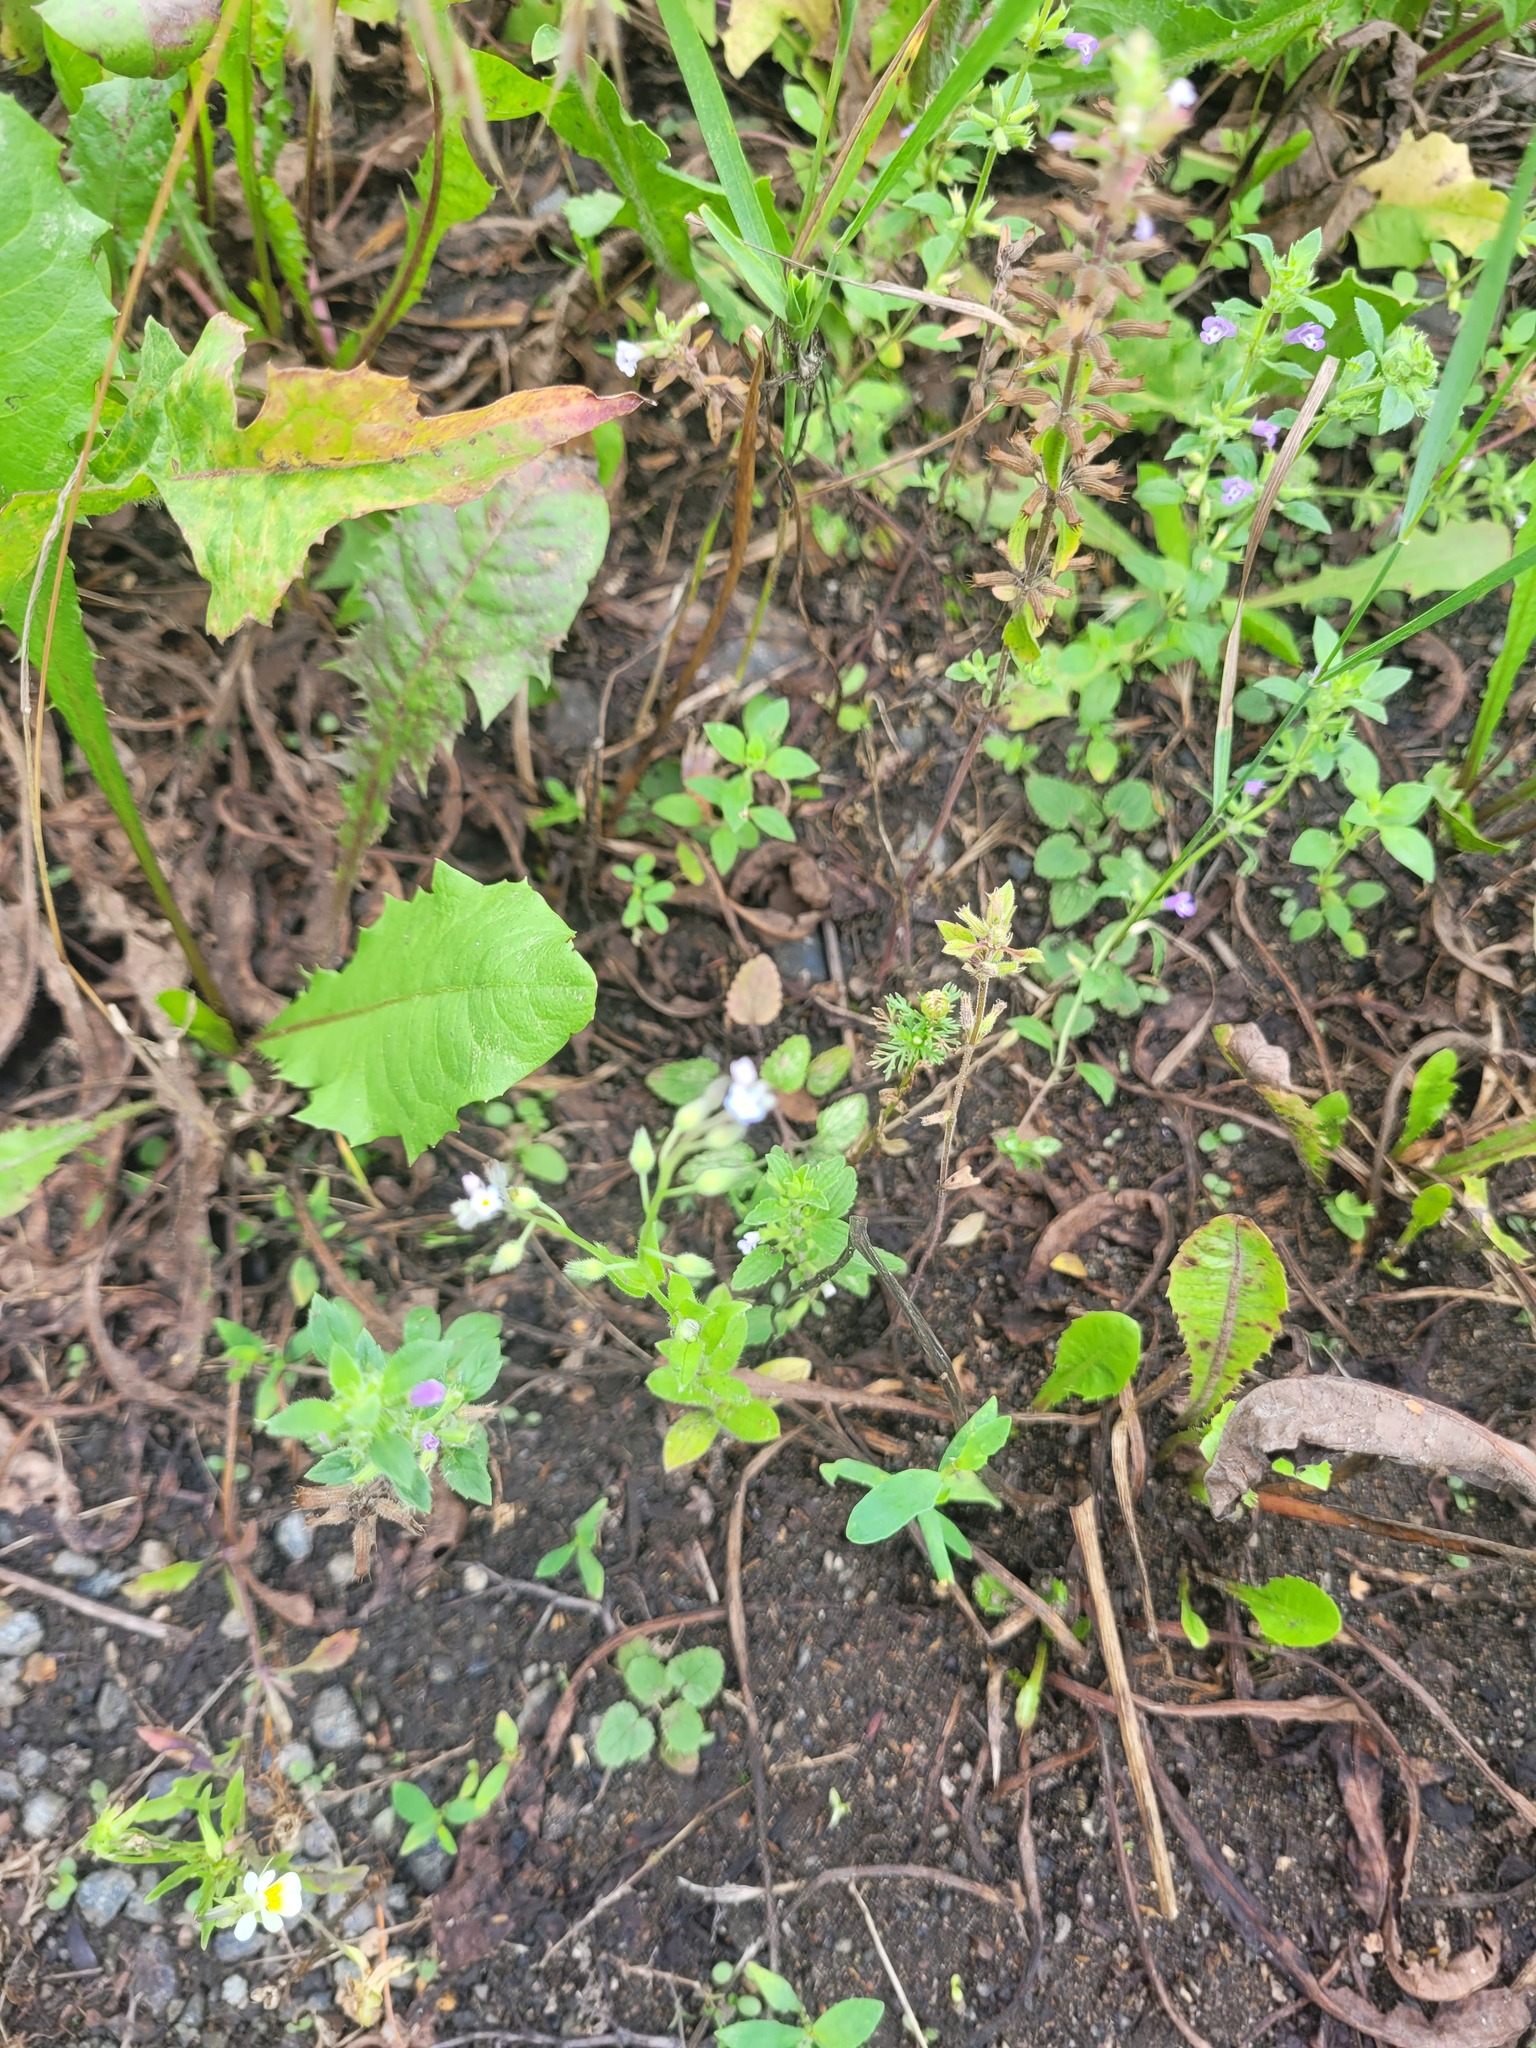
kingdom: Plantae
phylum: Tracheophyta
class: Magnoliopsida
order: Boraginales
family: Boraginaceae
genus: Myosotis
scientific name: Myosotis arvensis
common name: Field forget-me-not
